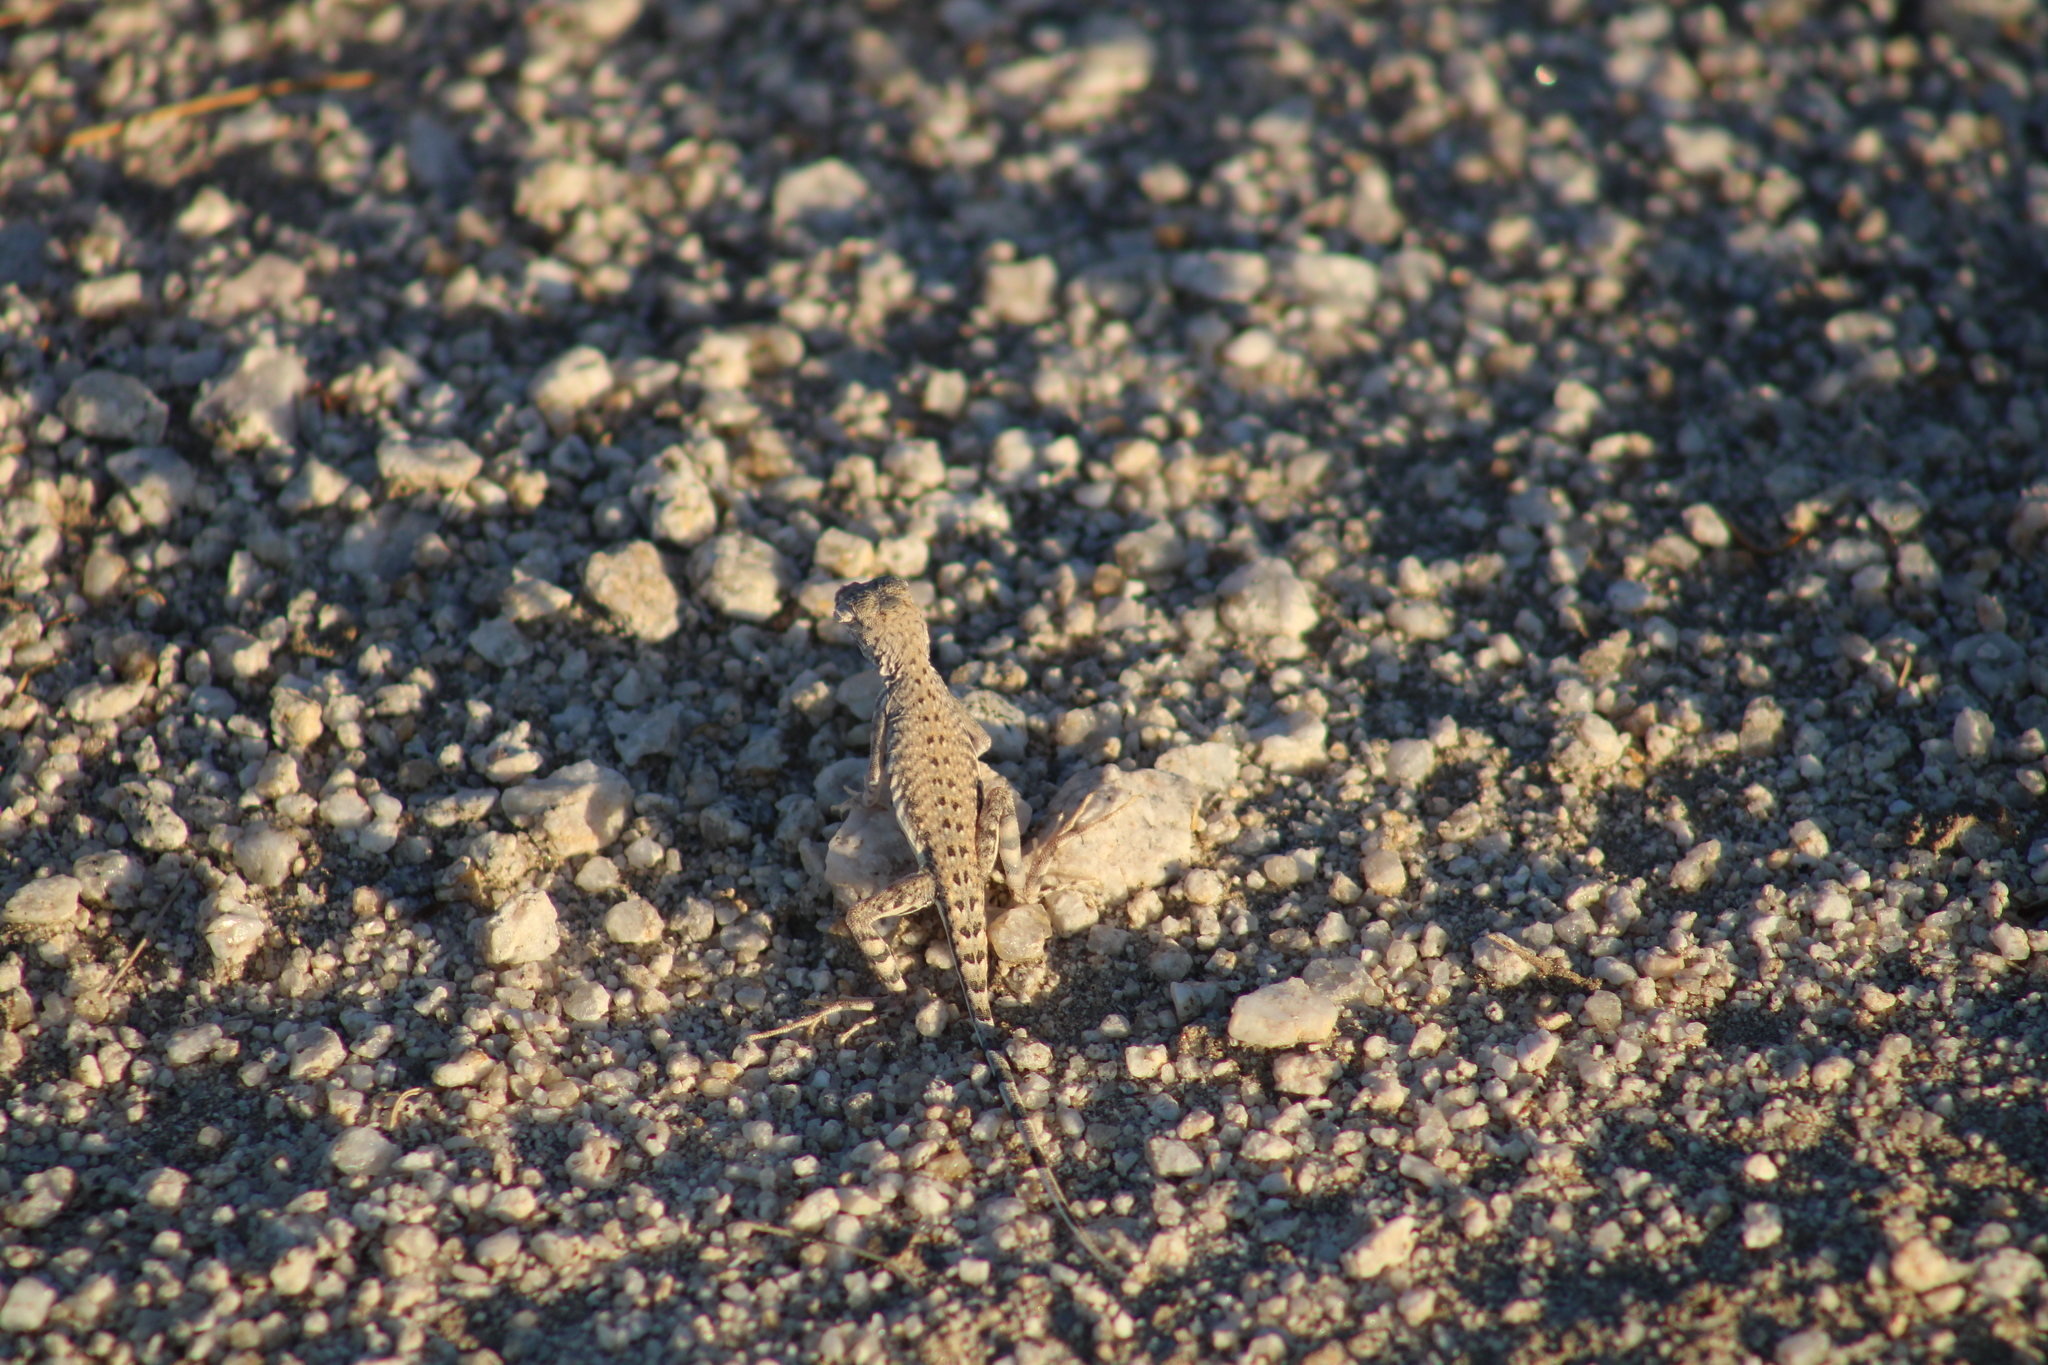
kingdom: Animalia
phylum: Chordata
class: Squamata
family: Phrynosomatidae
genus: Callisaurus
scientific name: Callisaurus draconoides
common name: Zebra-tailed lizard
